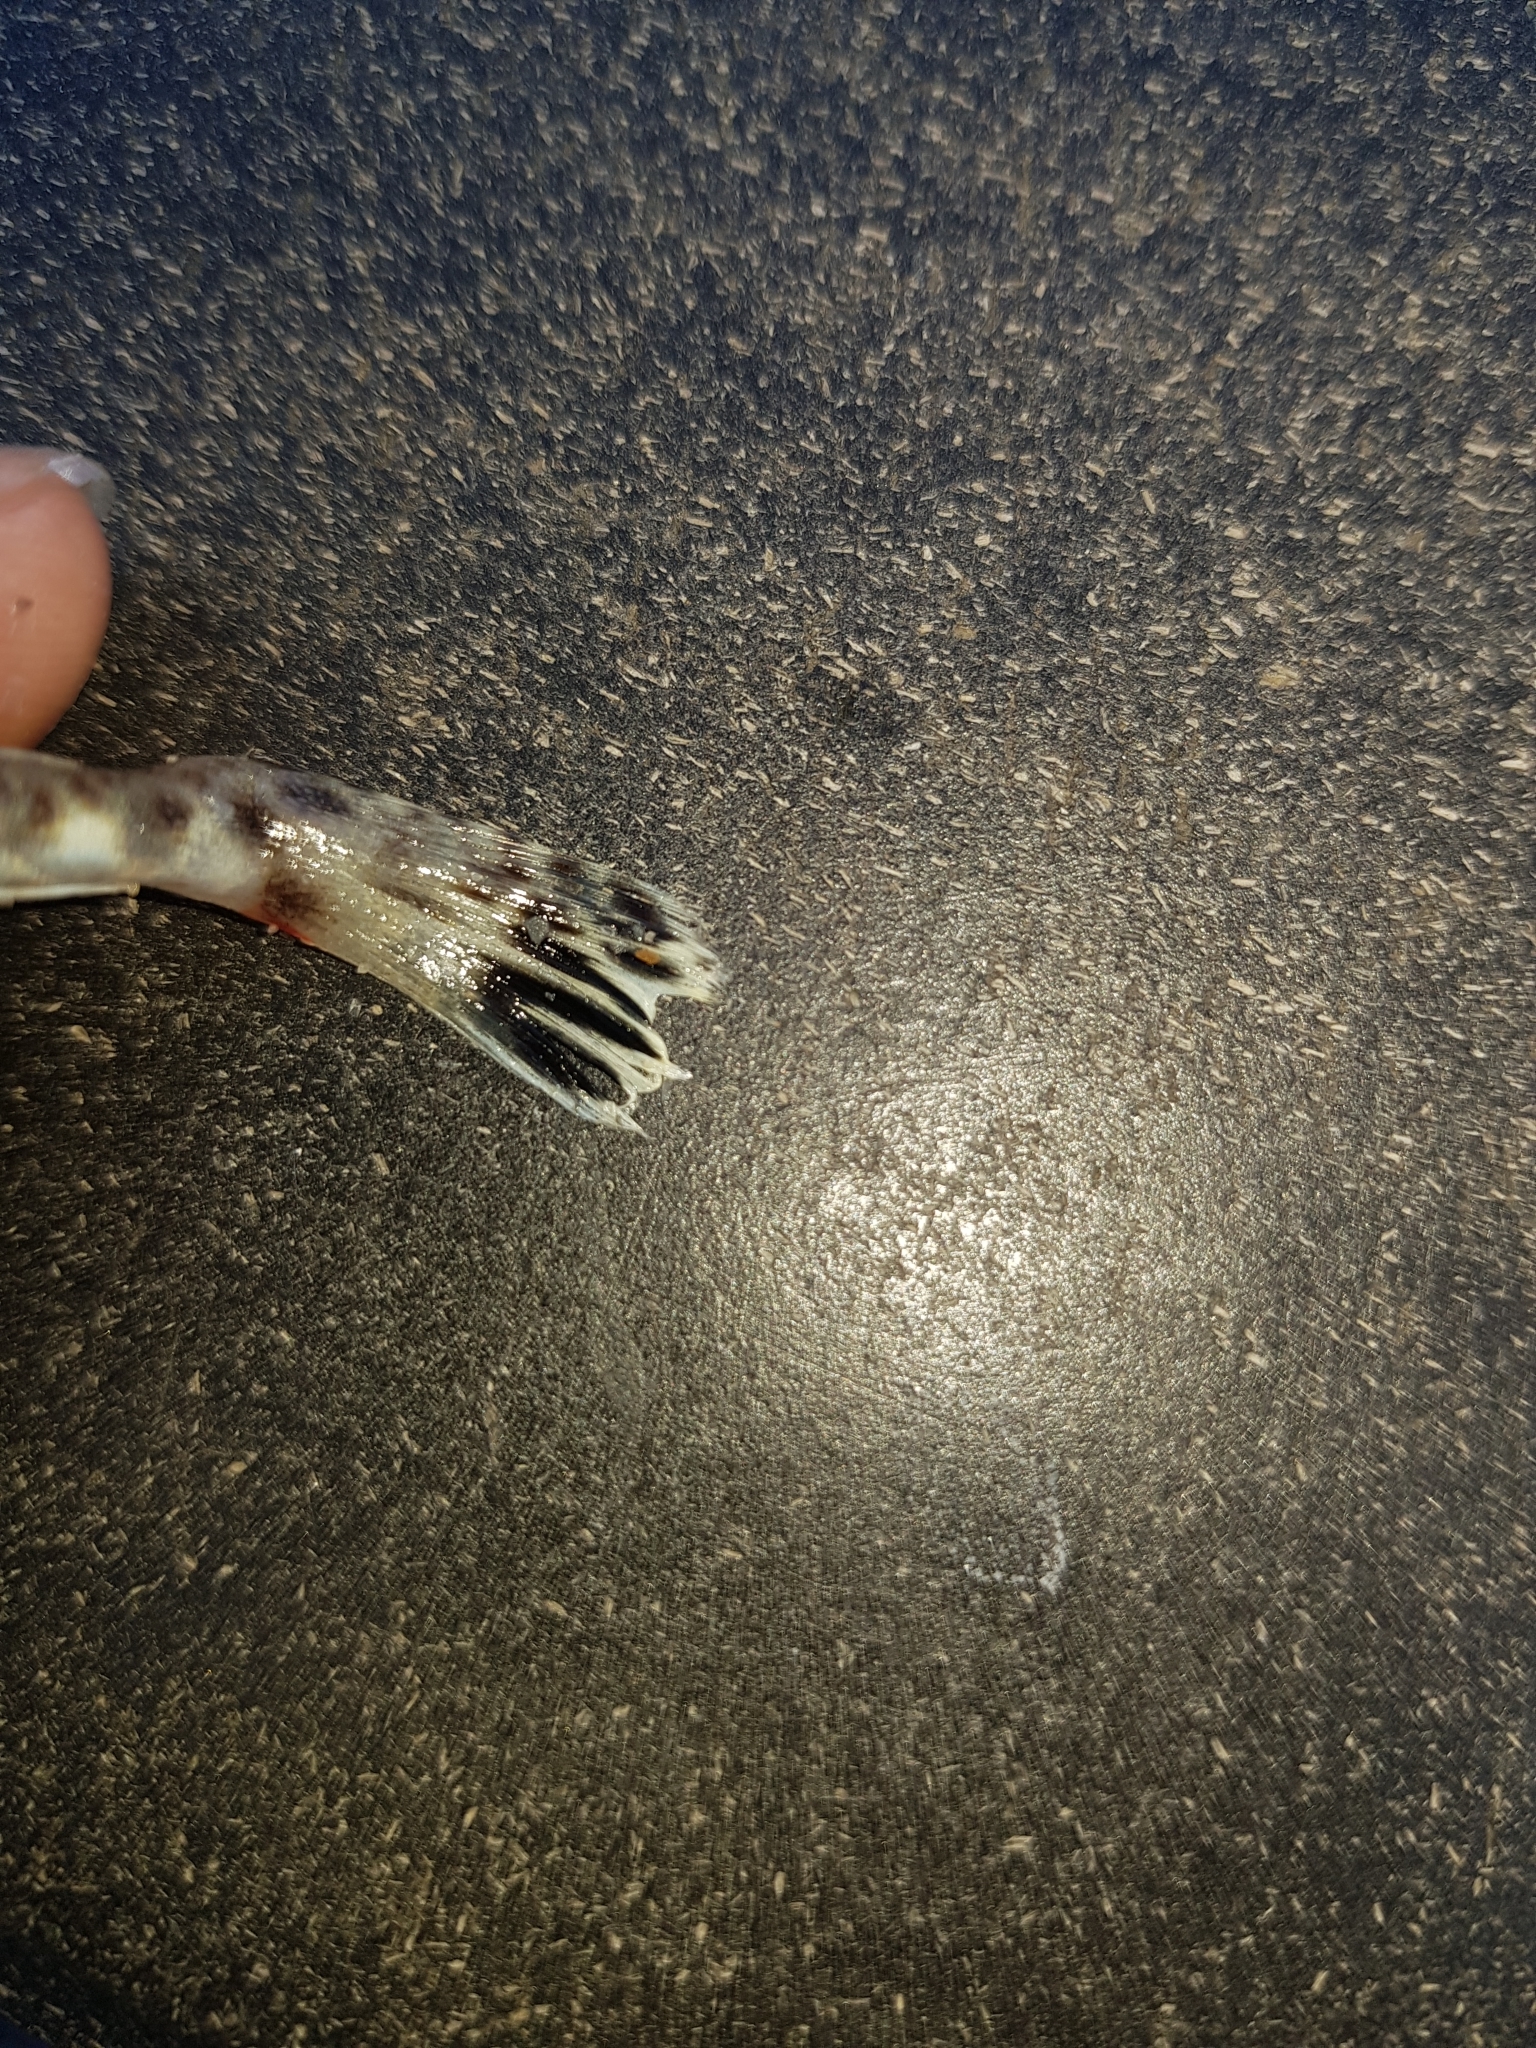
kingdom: Animalia
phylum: Chordata
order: Scorpaeniformes
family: Platycephalidae
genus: Platycephalus
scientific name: Platycephalus bassensis
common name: Sand flathead
